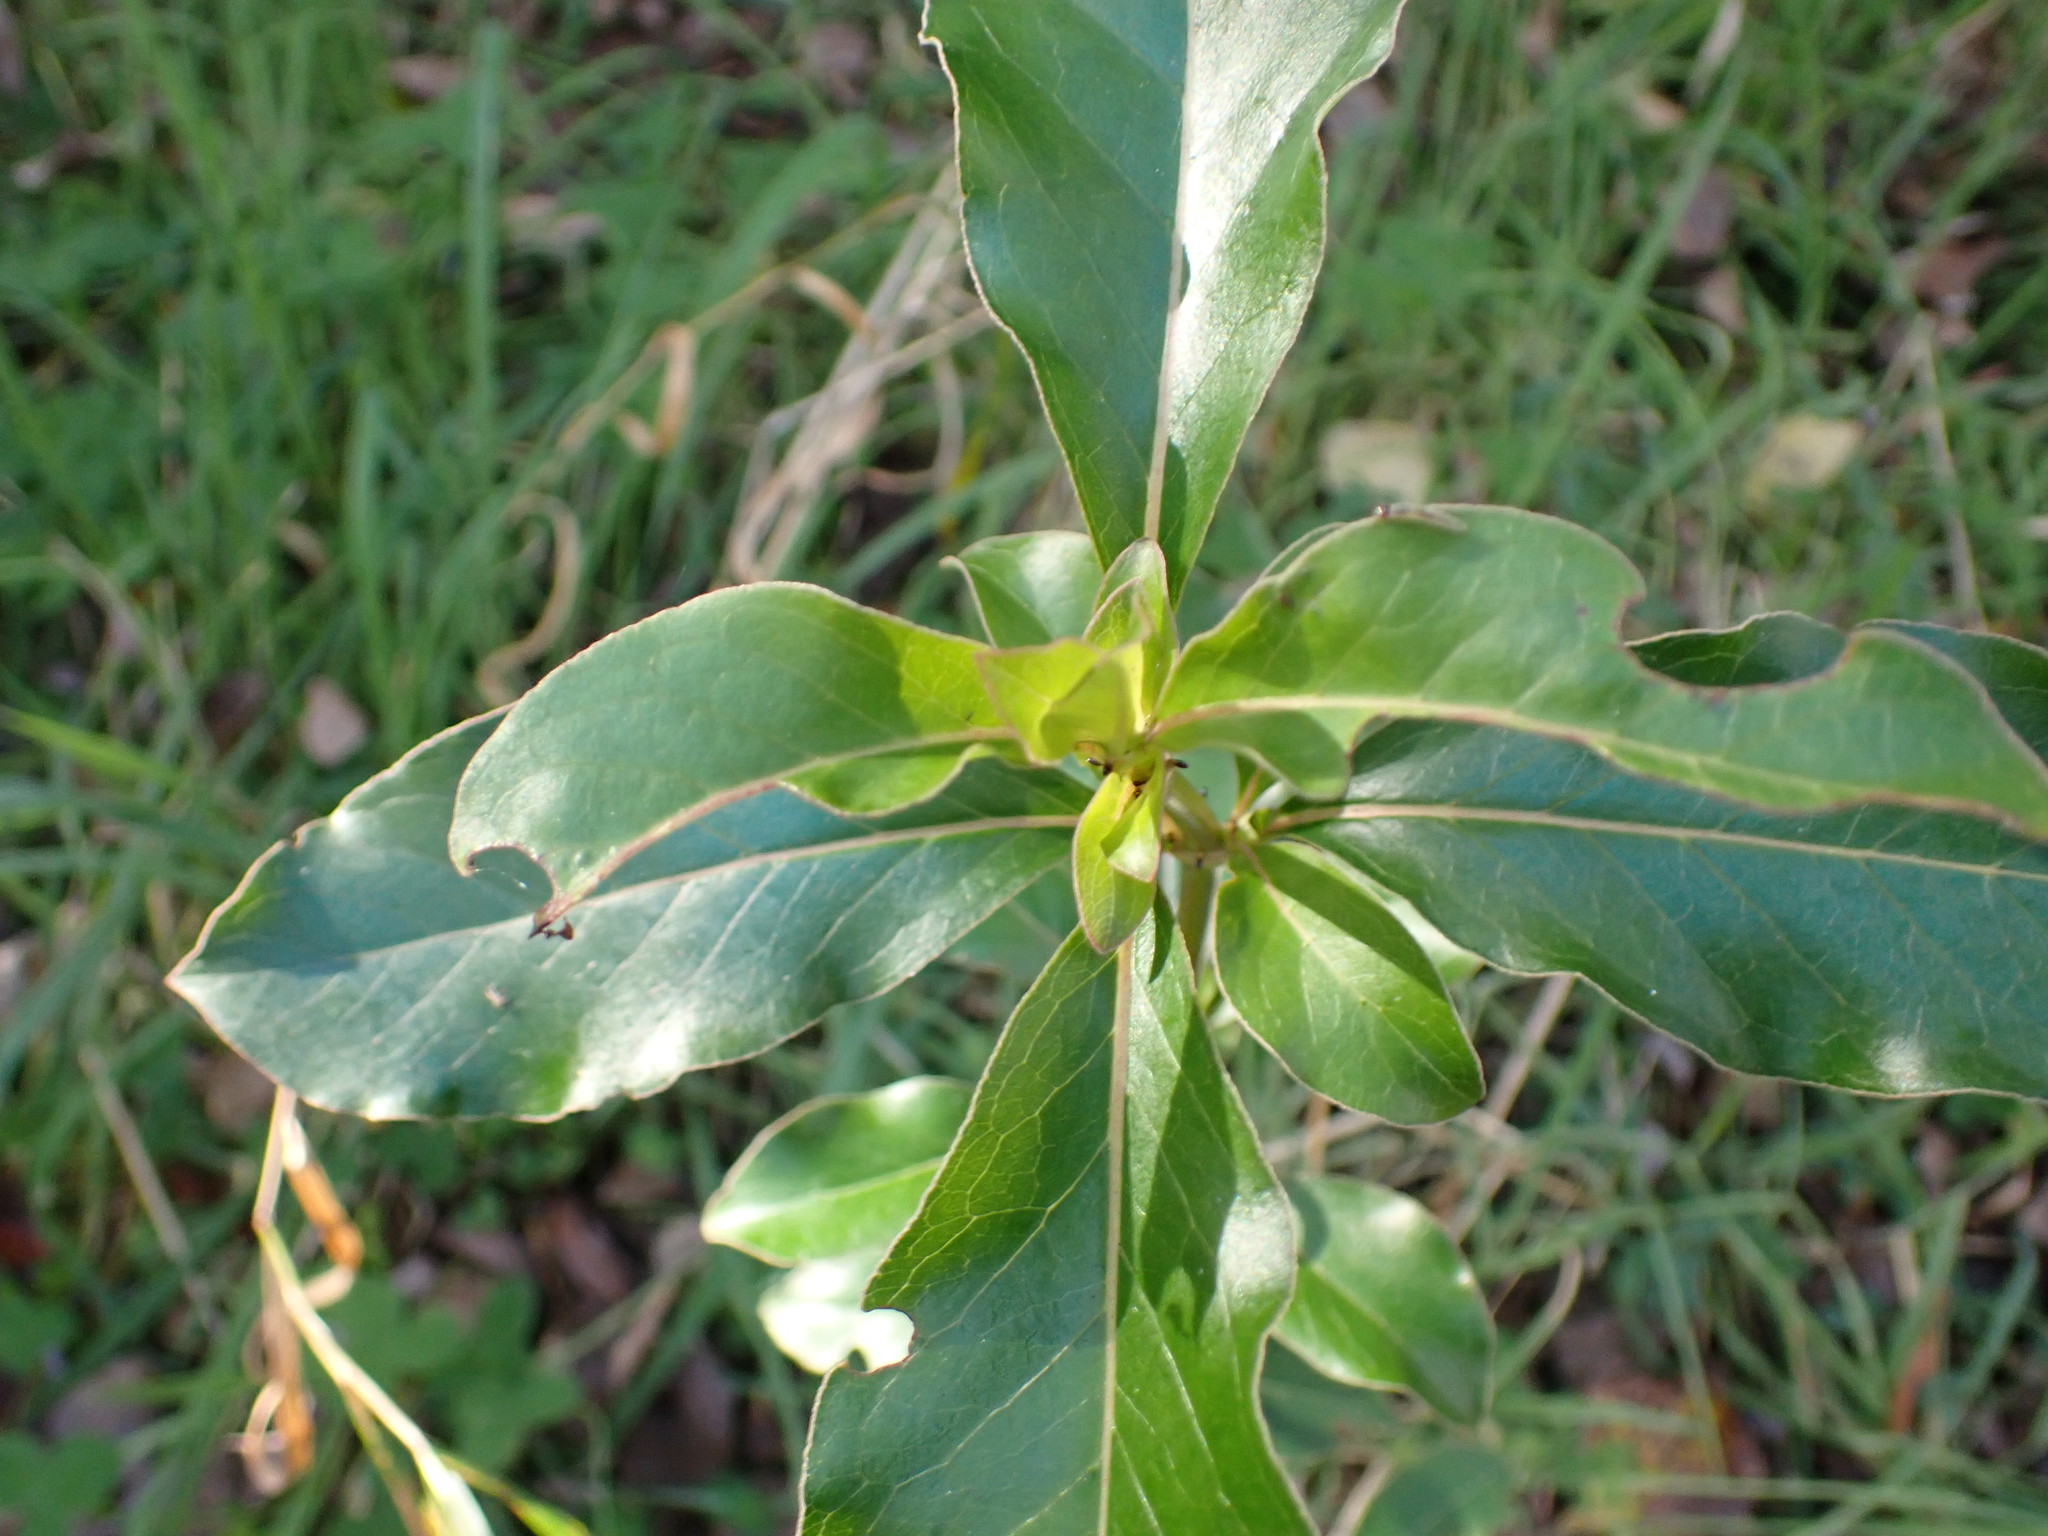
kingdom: Plantae
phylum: Tracheophyta
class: Magnoliopsida
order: Gentianales
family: Rubiaceae
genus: Coprosma
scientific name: Coprosma robusta
